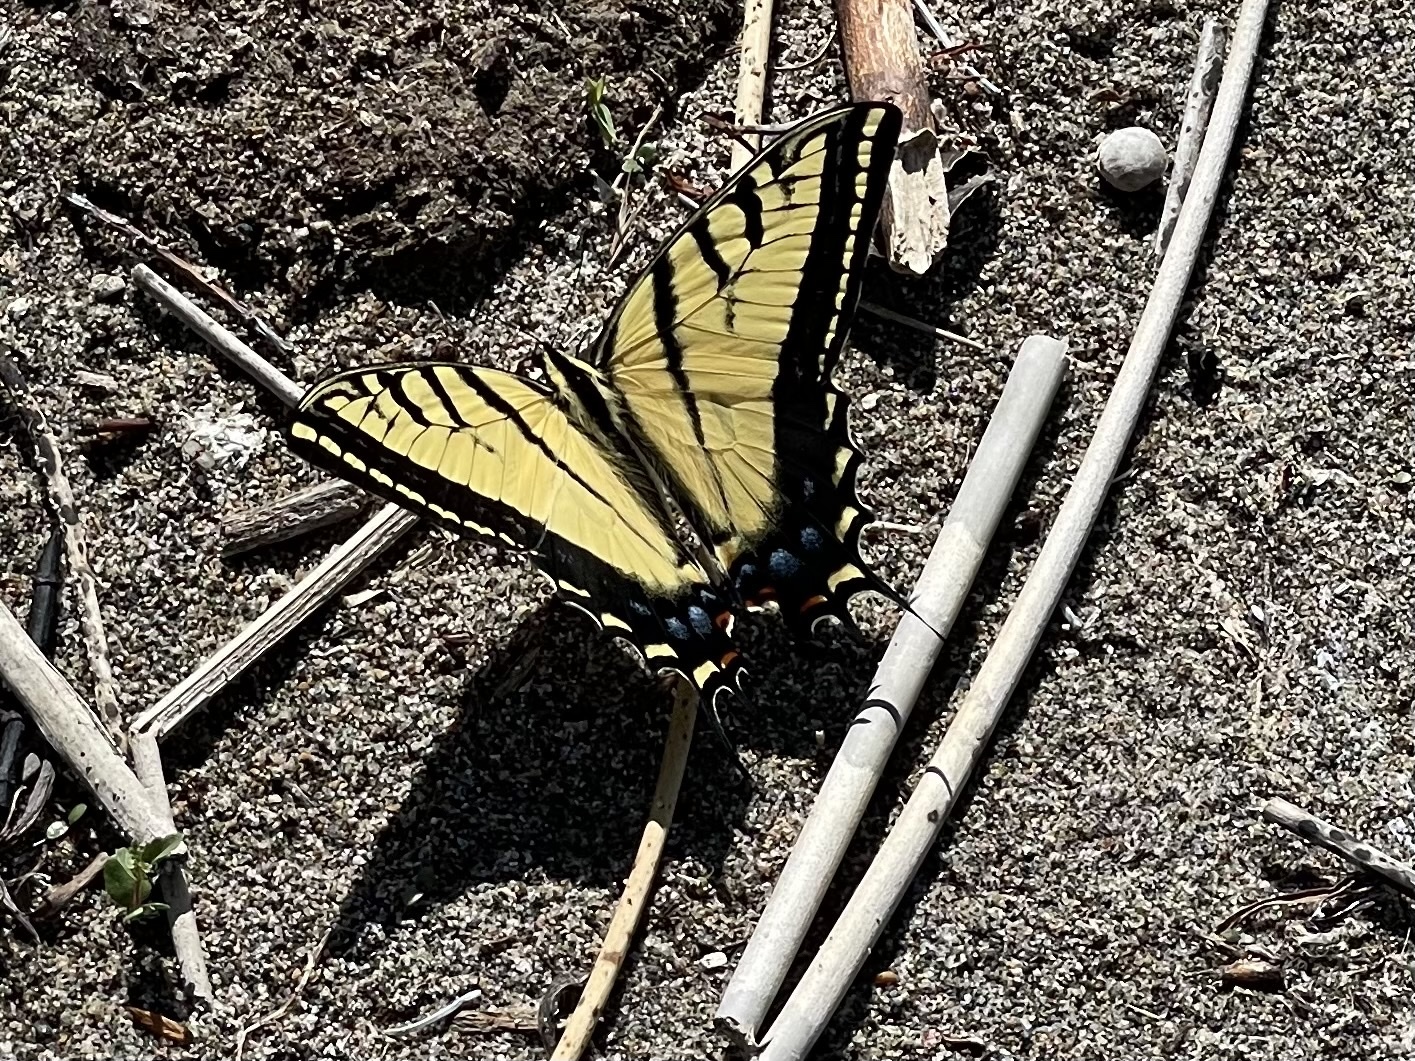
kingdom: Animalia
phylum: Arthropoda
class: Insecta
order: Lepidoptera
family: Papilionidae
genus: Papilio
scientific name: Papilio multicaudata
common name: Two-tailed tiger swallowtail
